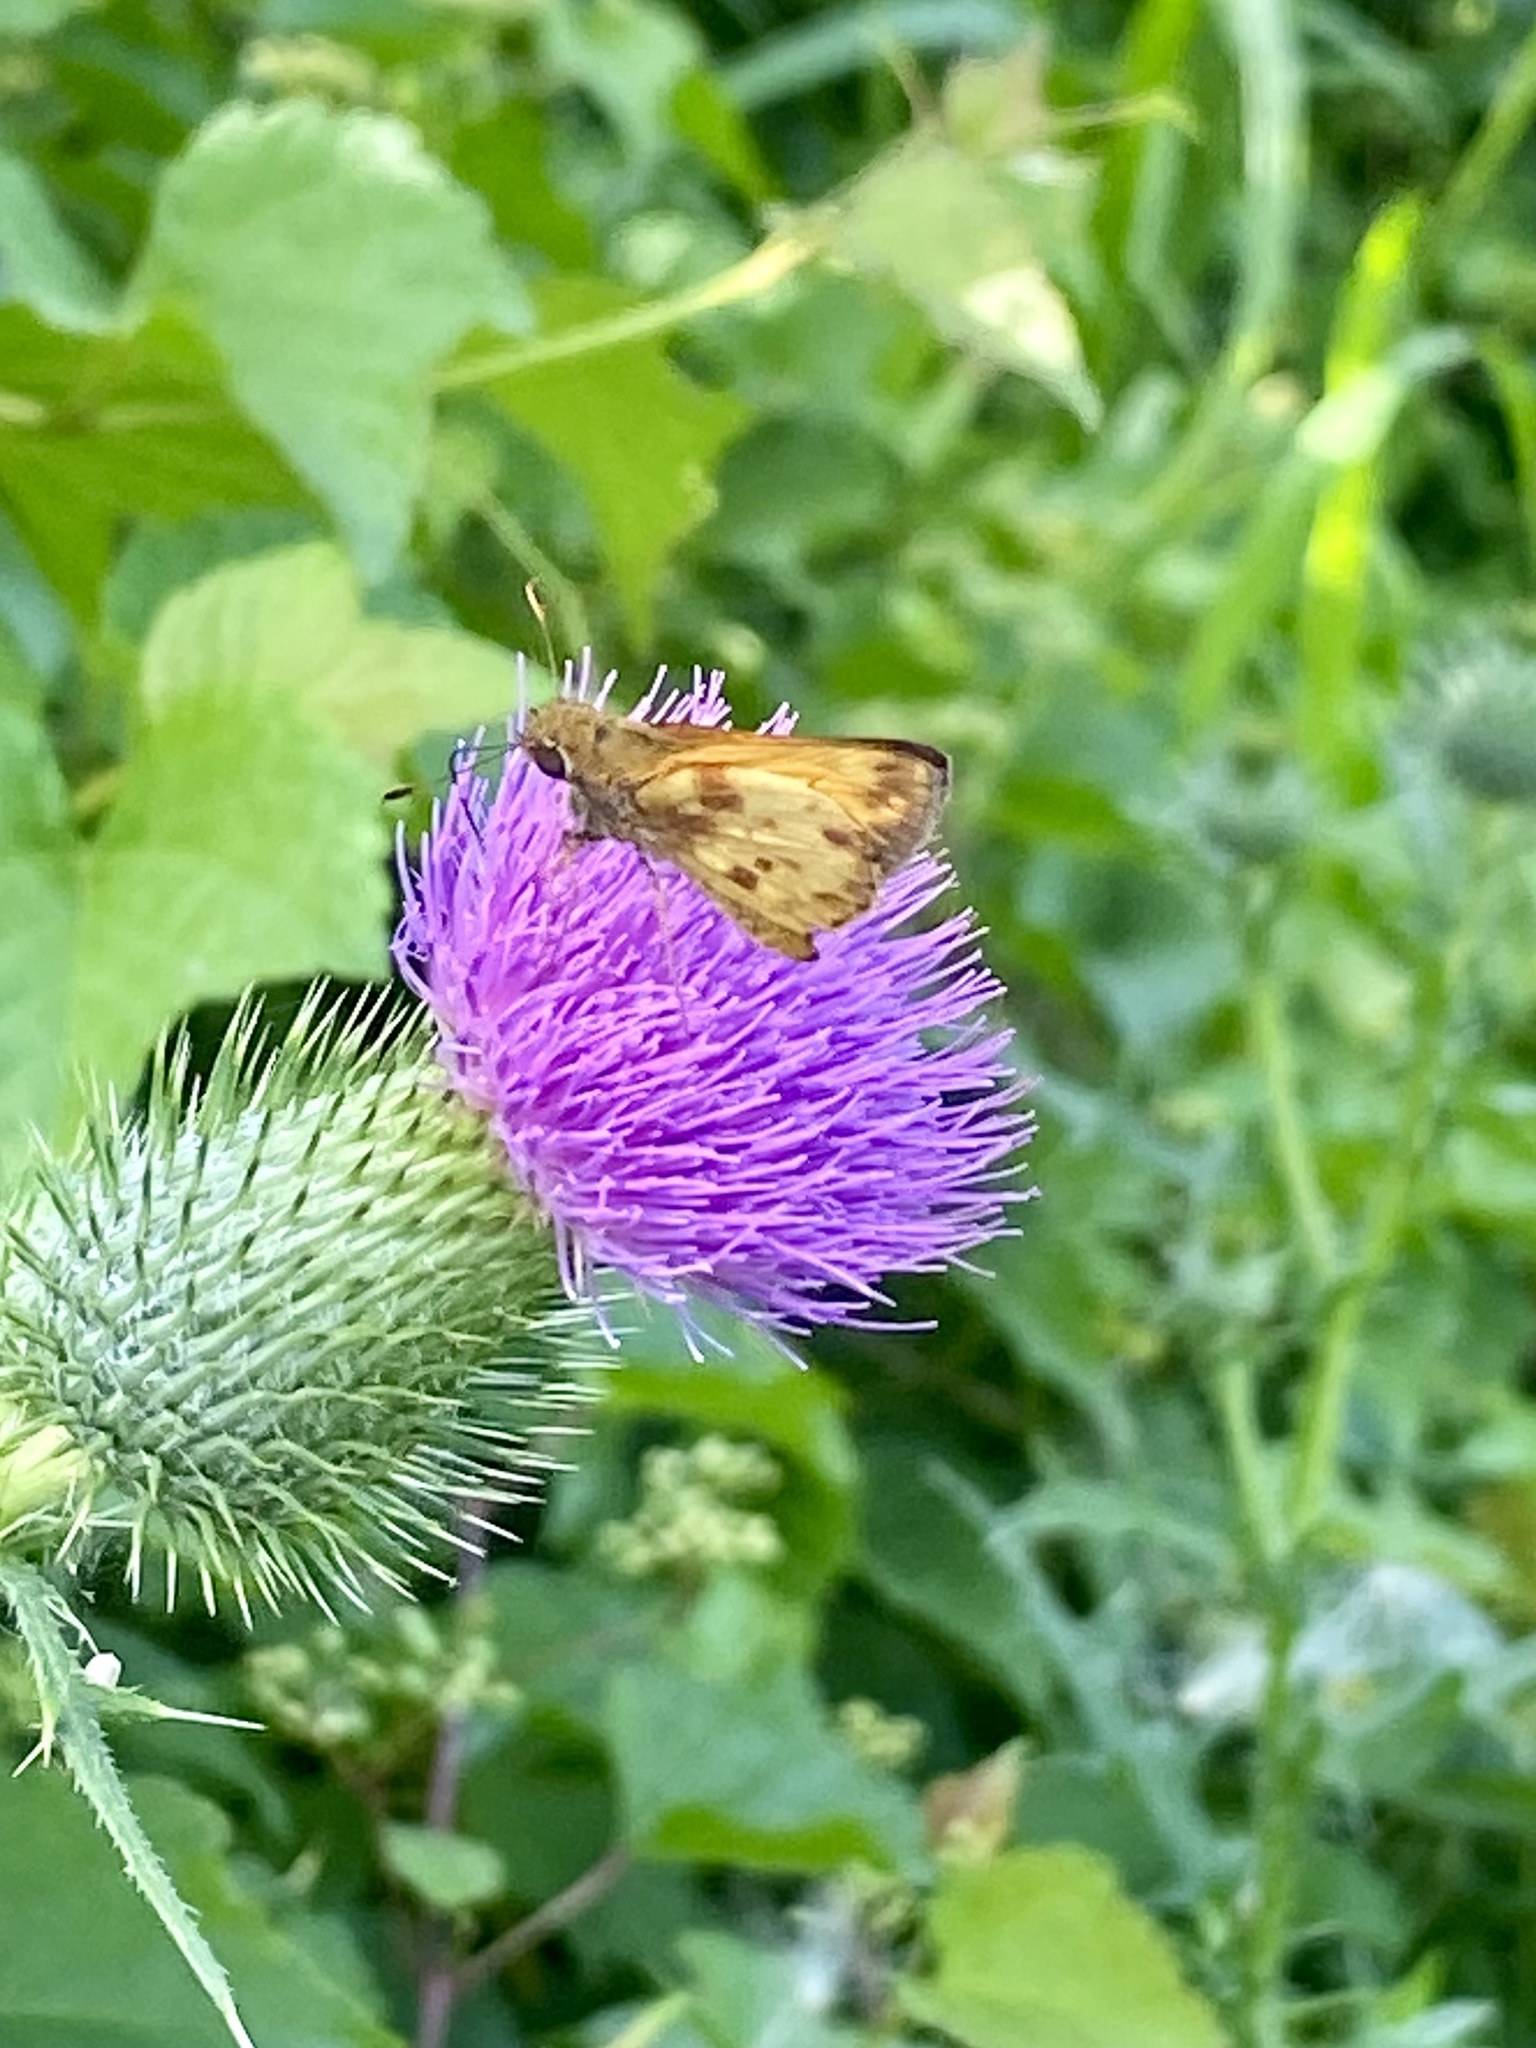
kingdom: Animalia
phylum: Arthropoda
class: Insecta
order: Lepidoptera
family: Hesperiidae
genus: Lon
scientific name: Lon zabulon
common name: Zabulon skipper
